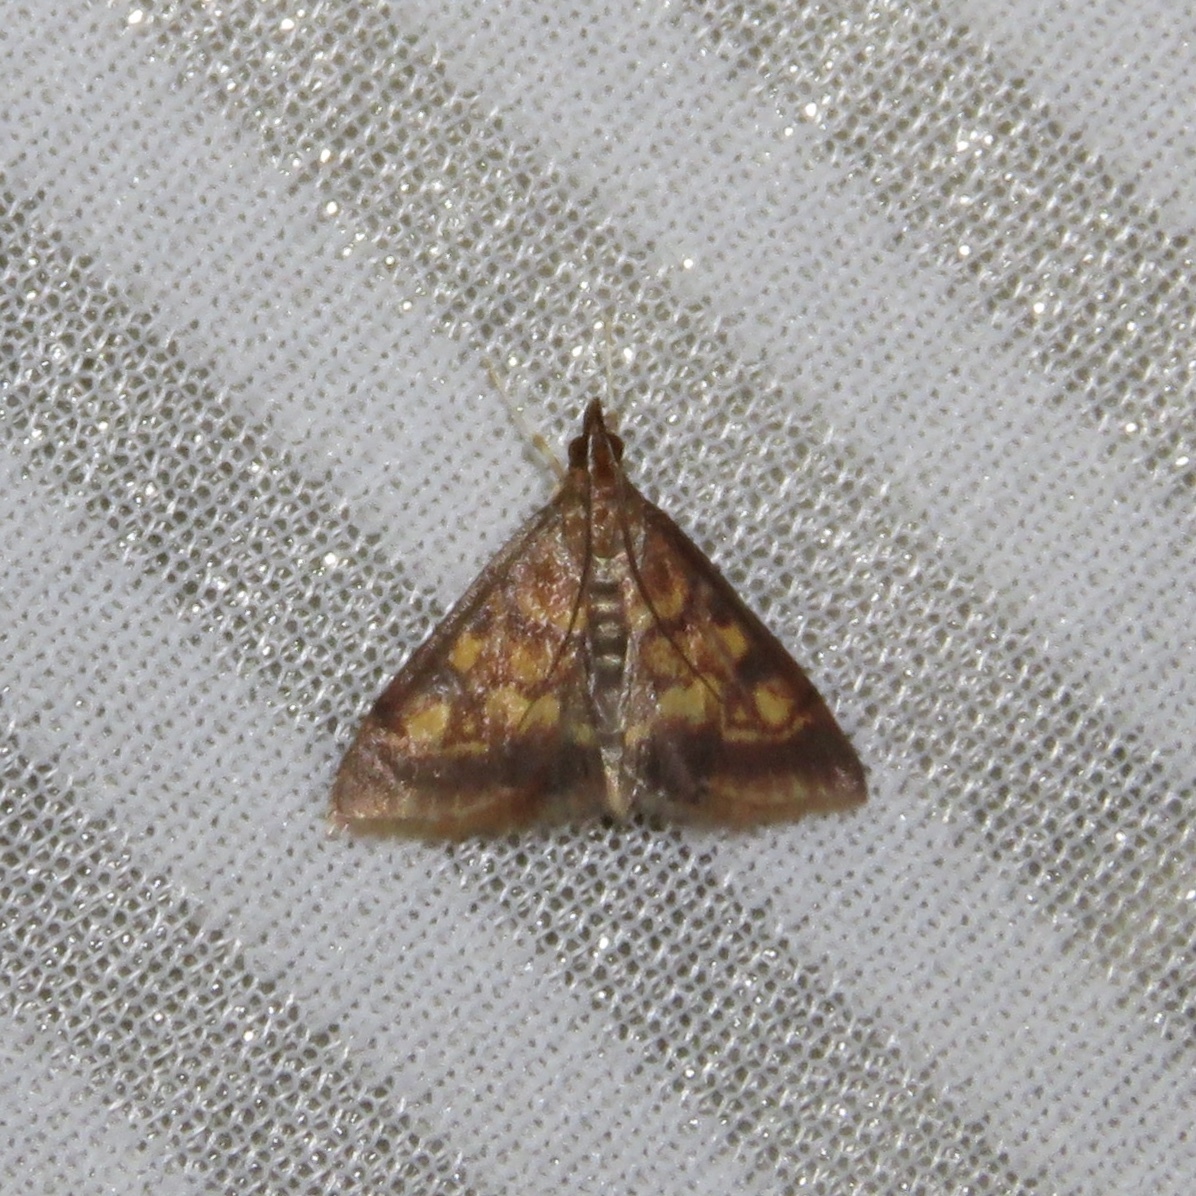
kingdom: Animalia
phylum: Arthropoda
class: Insecta
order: Lepidoptera
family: Crambidae
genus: Pyrausta
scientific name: Pyrausta acrionalis
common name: Mint-loving pyrausta moth
